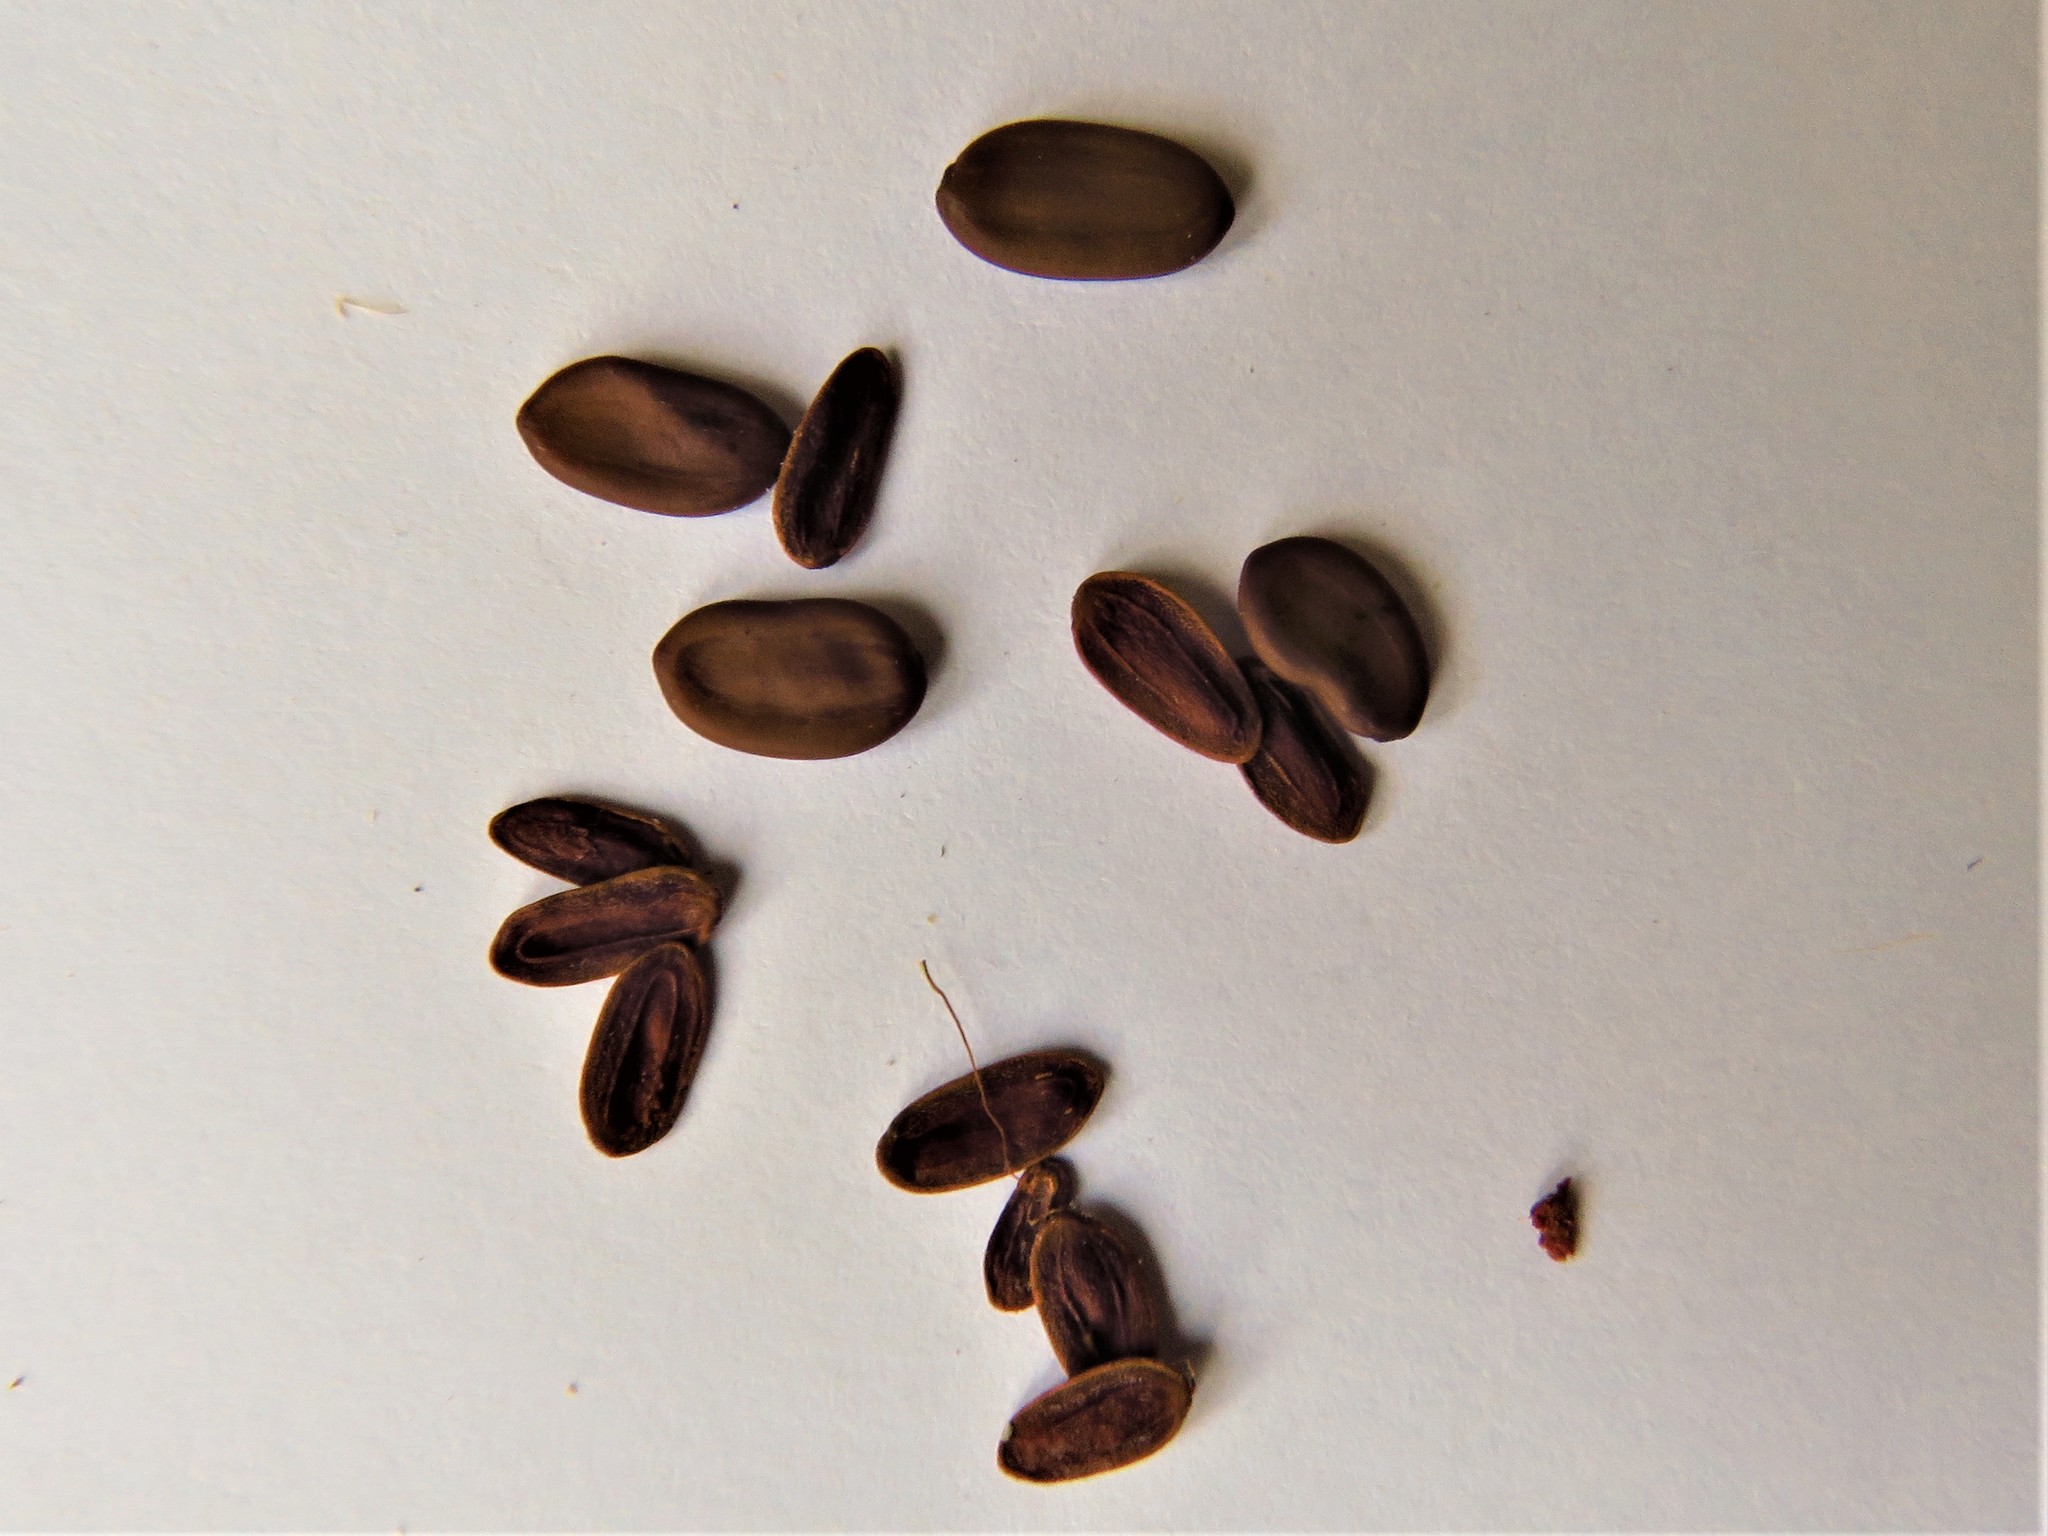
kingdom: Plantae
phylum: Tracheophyta
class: Magnoliopsida
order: Fabales
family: Fabaceae
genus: Albizia
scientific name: Albizia julibrissin
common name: Silktree
